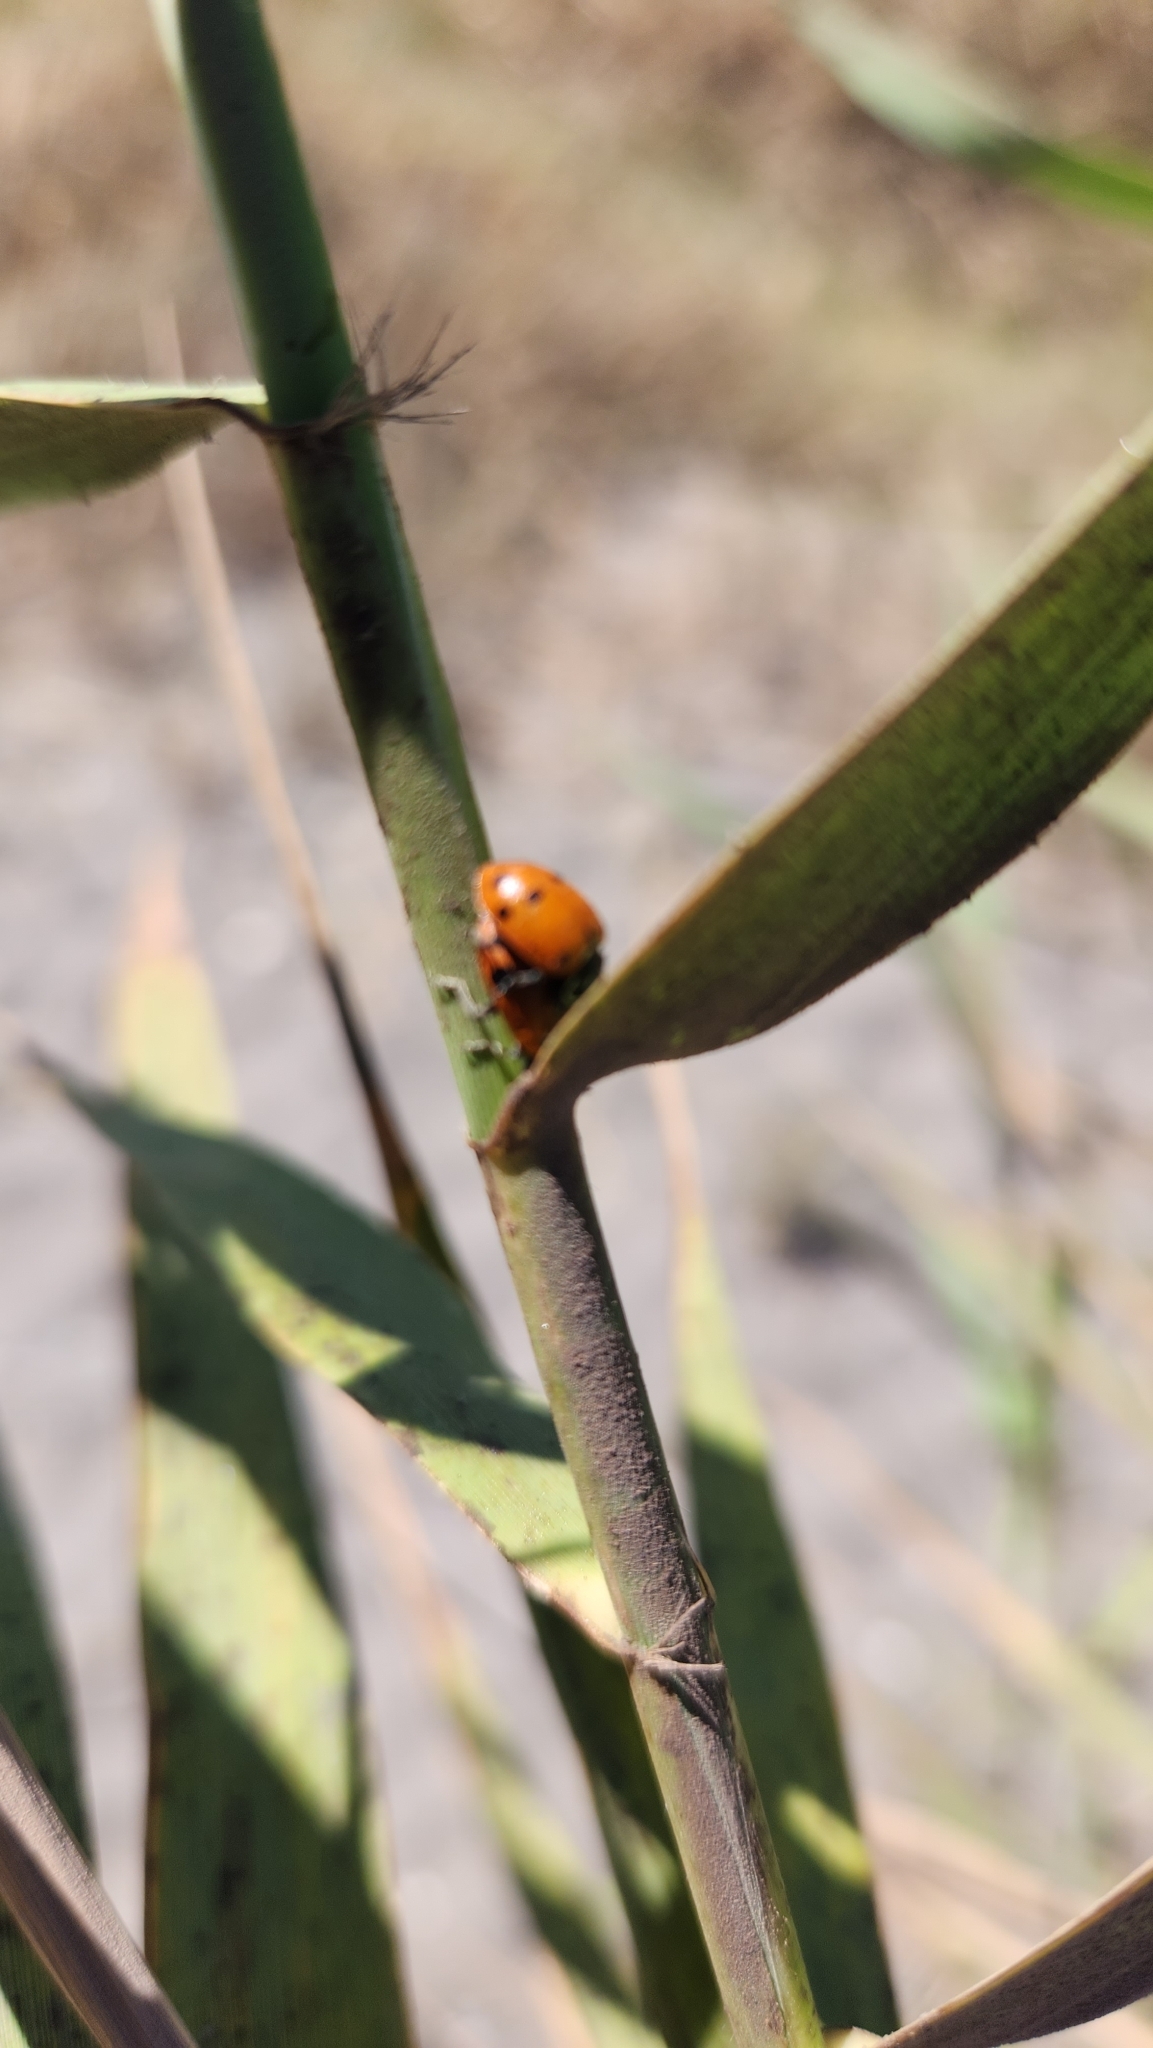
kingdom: Animalia
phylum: Arthropoda
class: Insecta
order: Coleoptera
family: Coccinellidae
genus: Hippodamia
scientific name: Hippodamia convergens
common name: Convergent lady beetle
